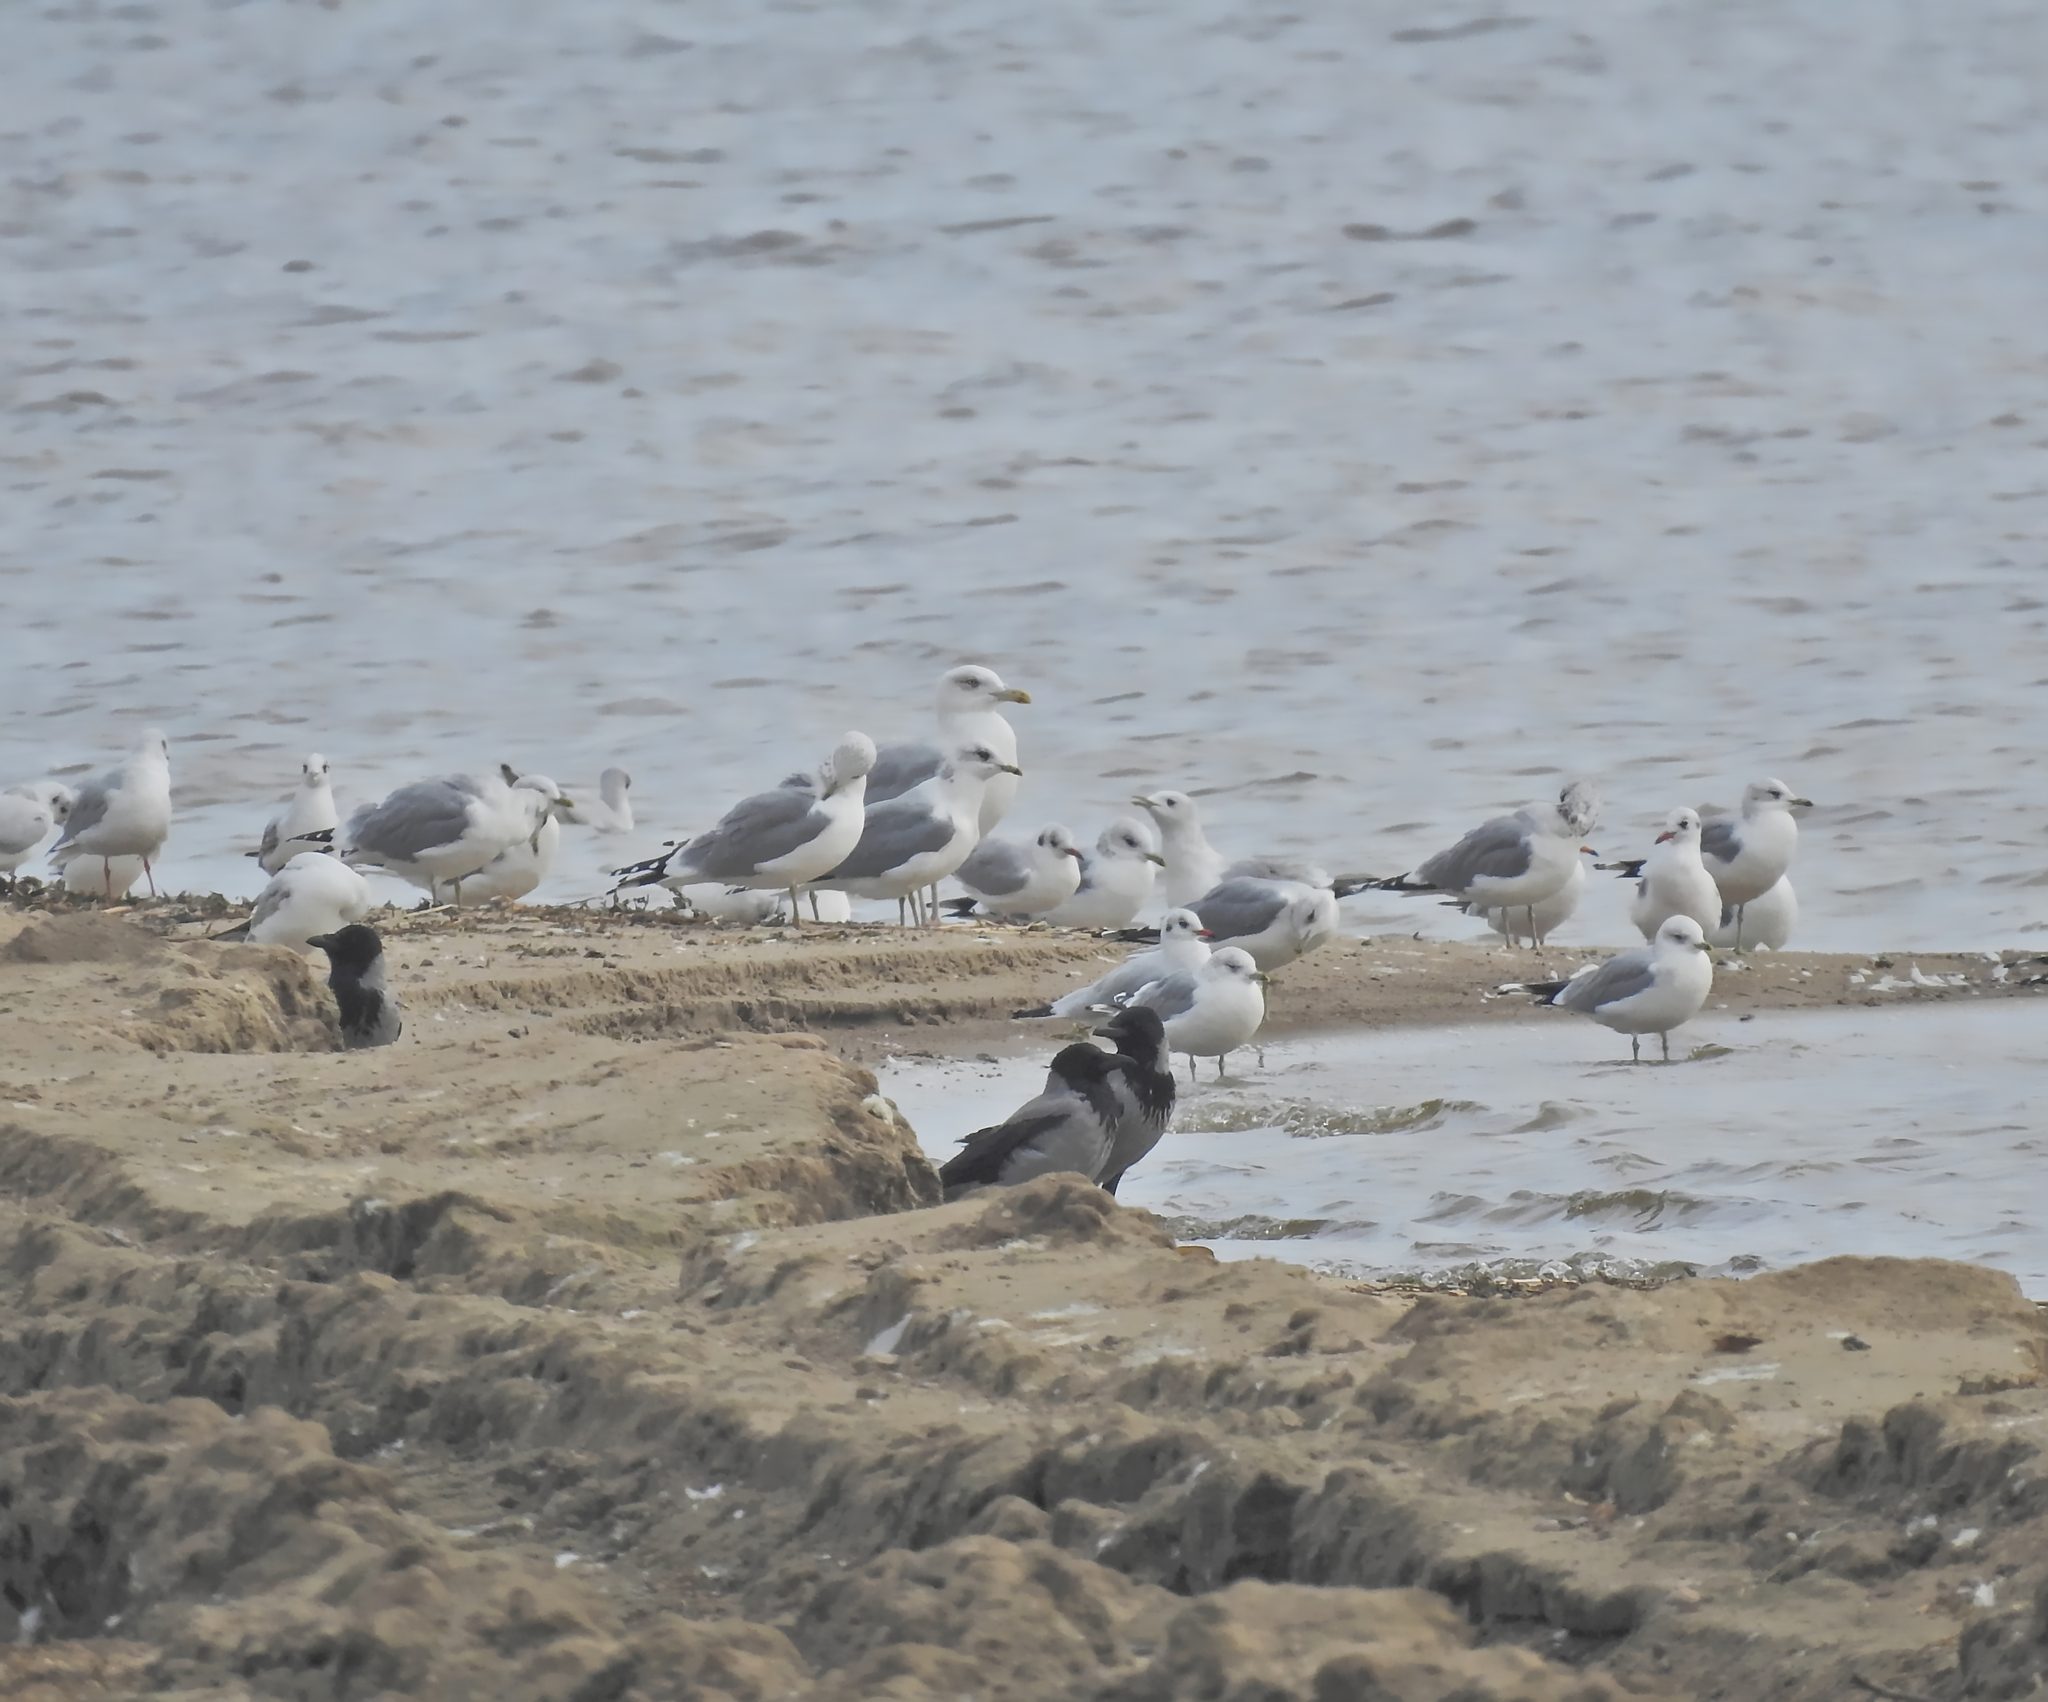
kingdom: Animalia
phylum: Chordata
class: Aves
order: Charadriiformes
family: Laridae
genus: Larus
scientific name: Larus canus
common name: Mew gull
